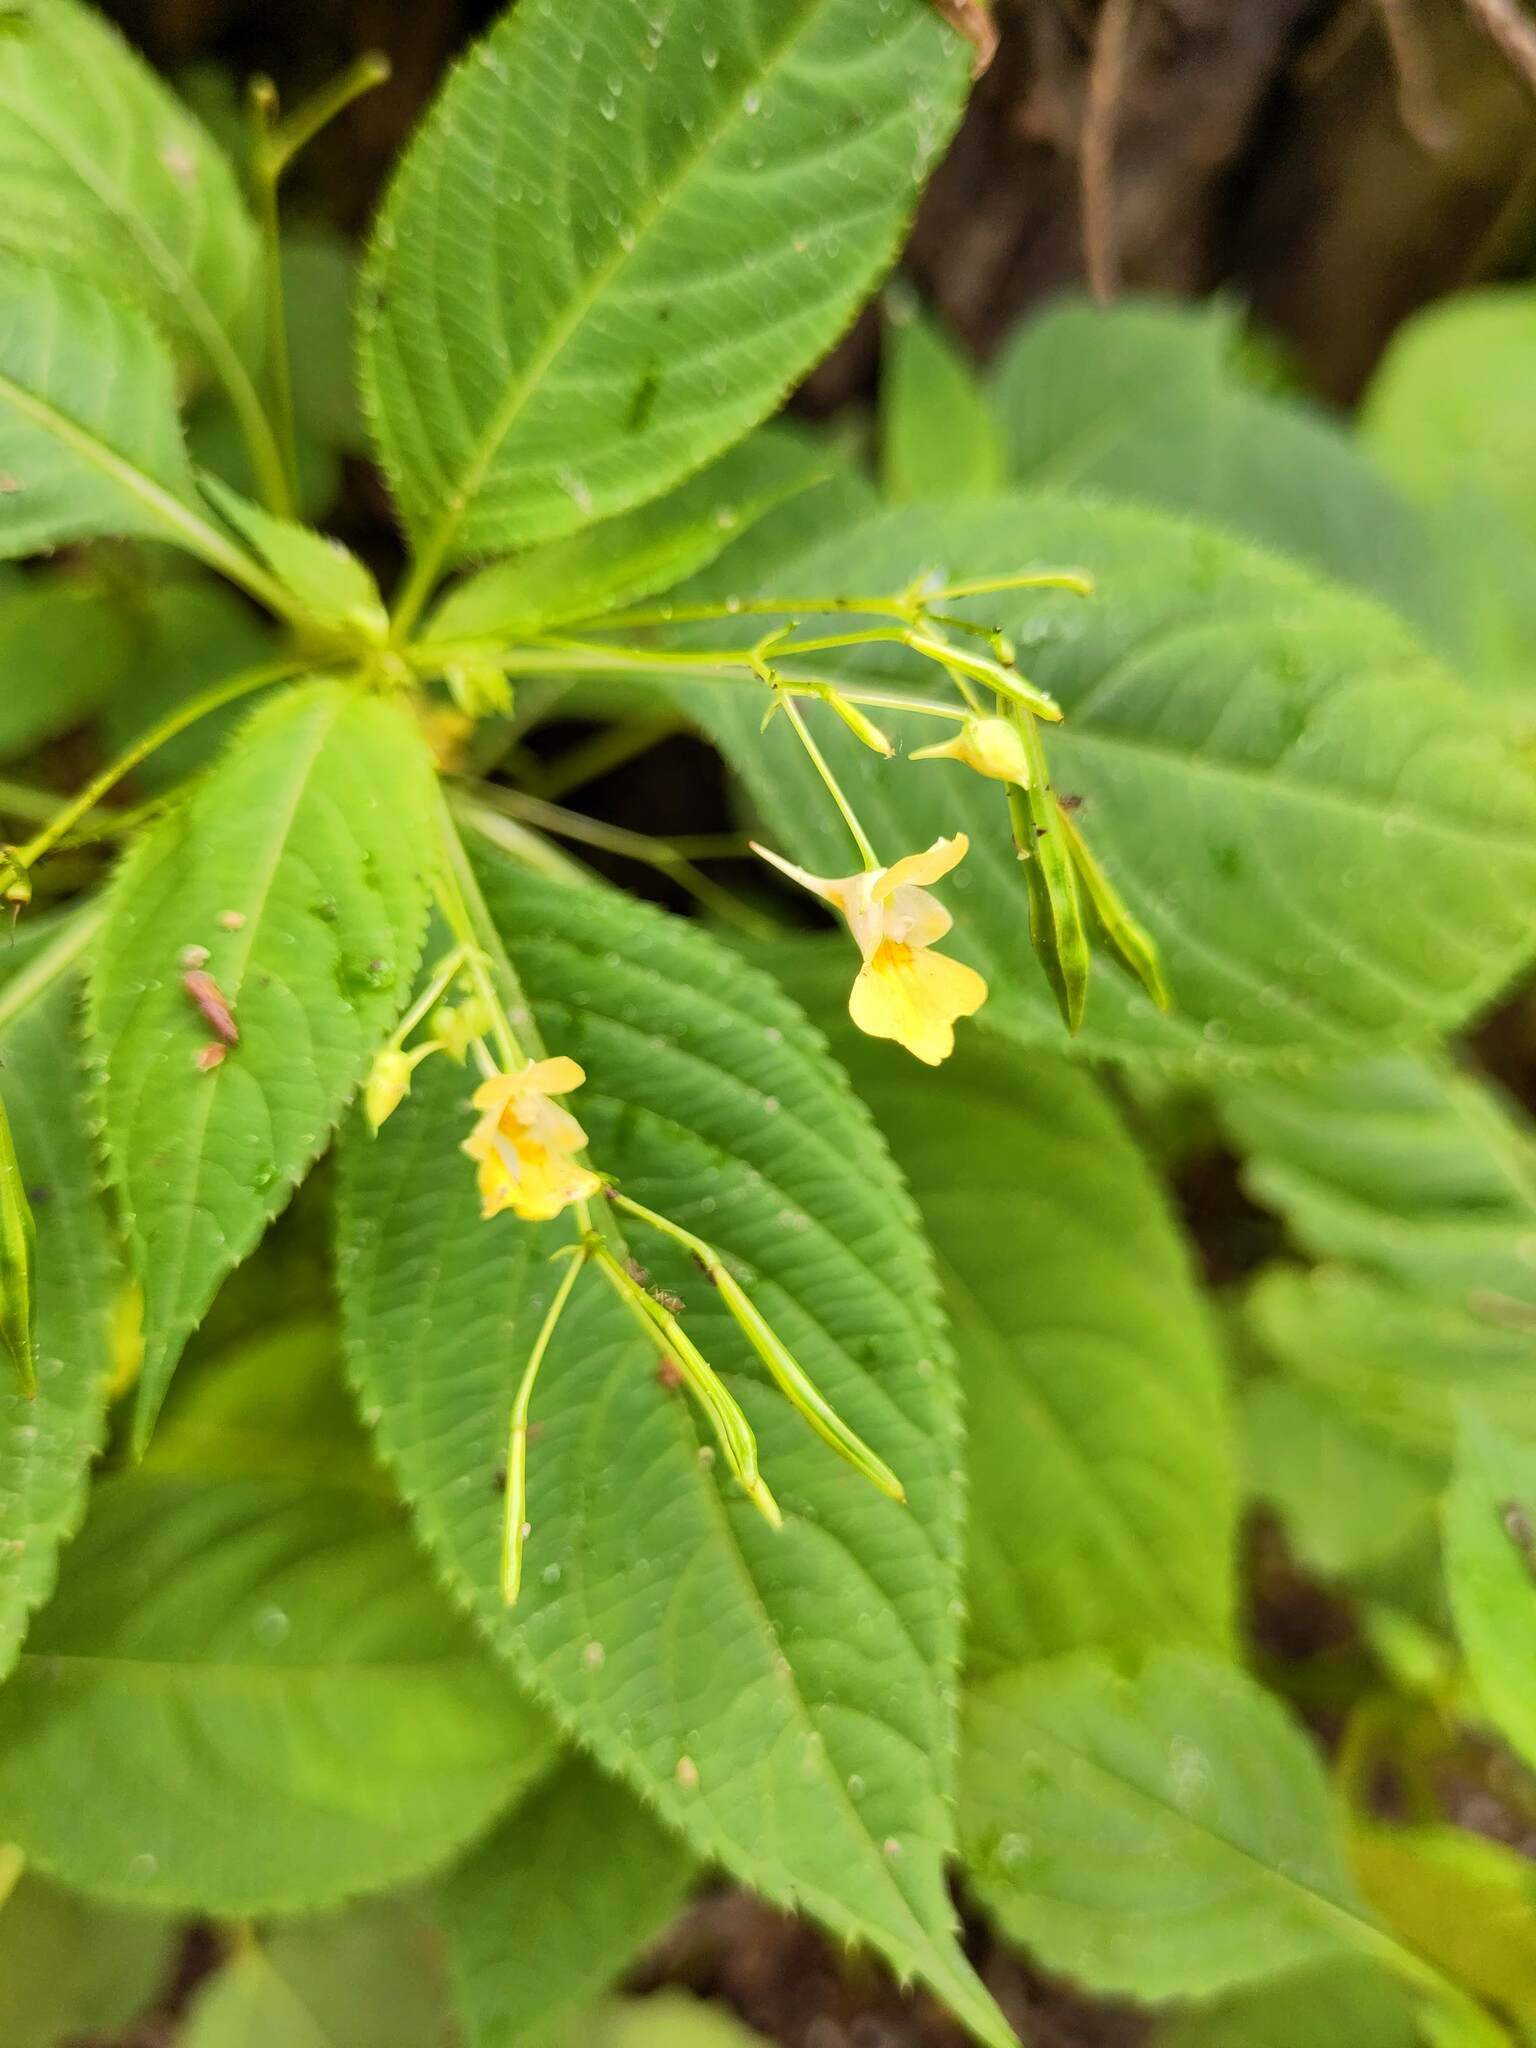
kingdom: Plantae
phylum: Tracheophyta
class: Magnoliopsida
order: Ericales
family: Balsaminaceae
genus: Impatiens
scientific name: Impatiens parviflora
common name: Small balsam
